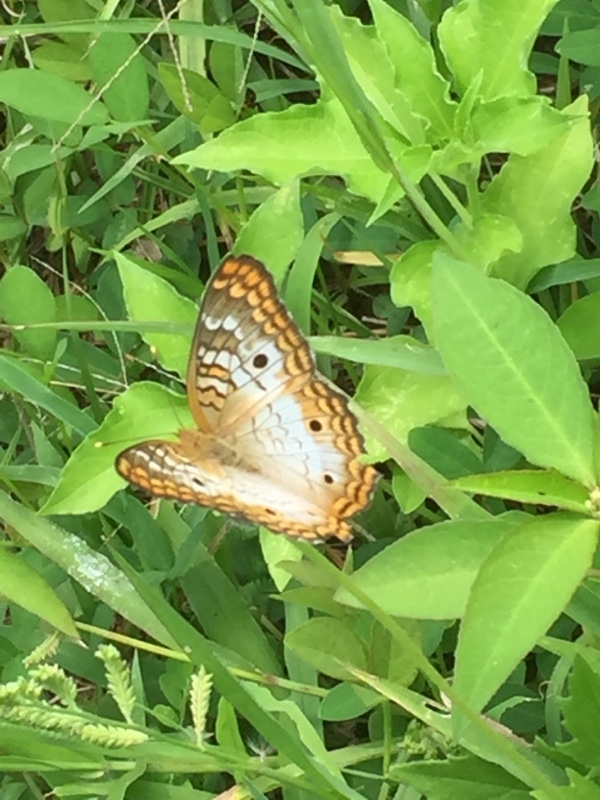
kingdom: Animalia
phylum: Arthropoda
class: Insecta
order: Lepidoptera
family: Nymphalidae
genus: Anartia
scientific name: Anartia jatrophae
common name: White peacock
